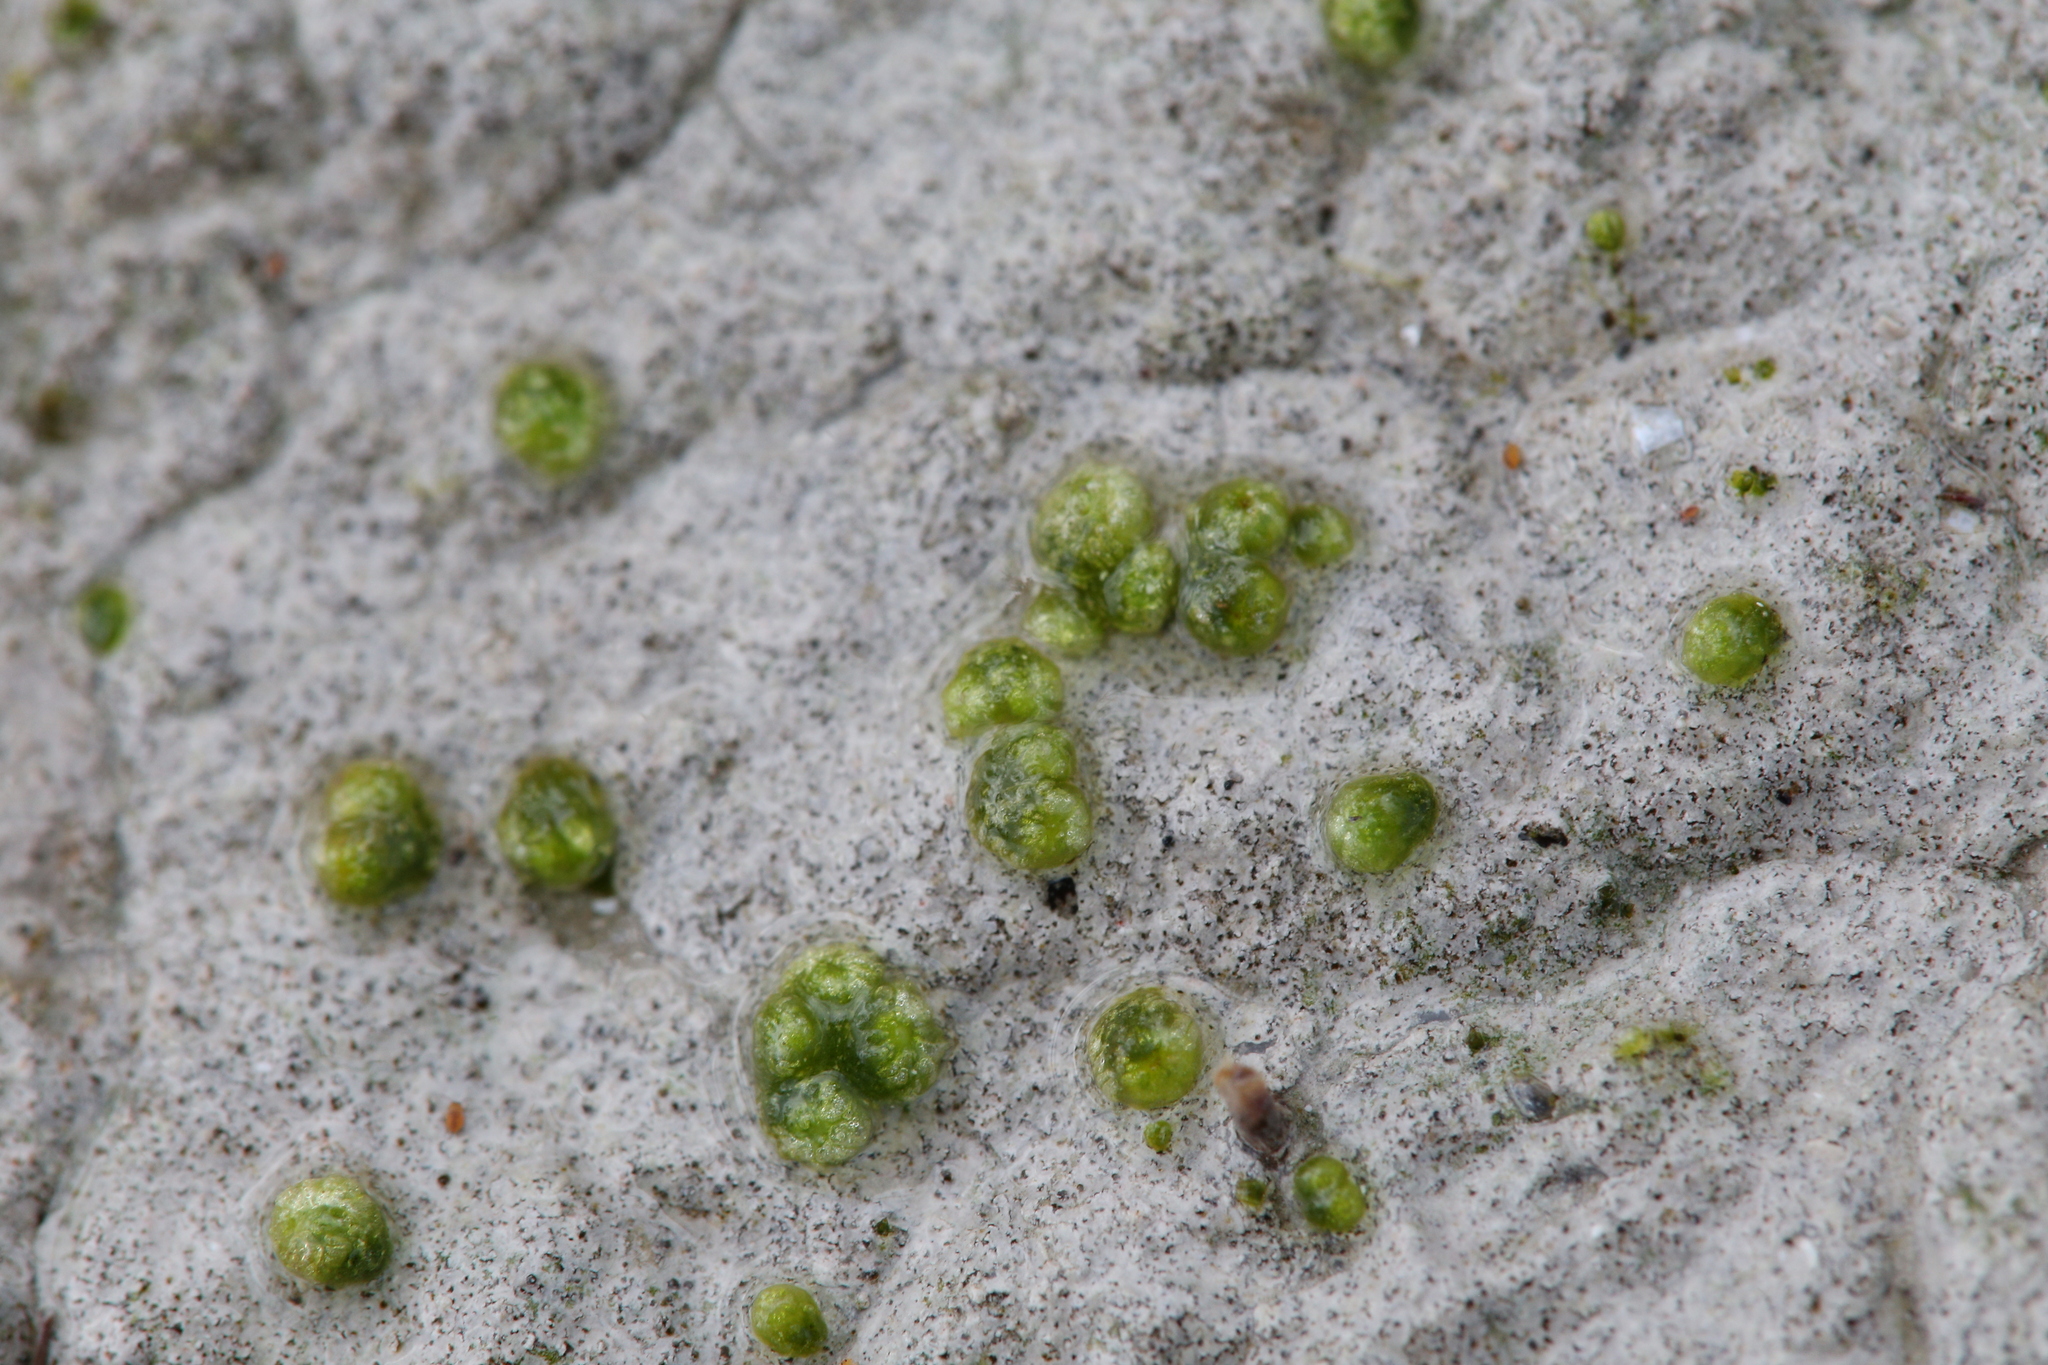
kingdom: Plantae
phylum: Marchantiophyta
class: Marchantiopsida
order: Sphaerocarpales
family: Monocarpaceae
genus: Monocarpus
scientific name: Monocarpus sphaerocarpus
